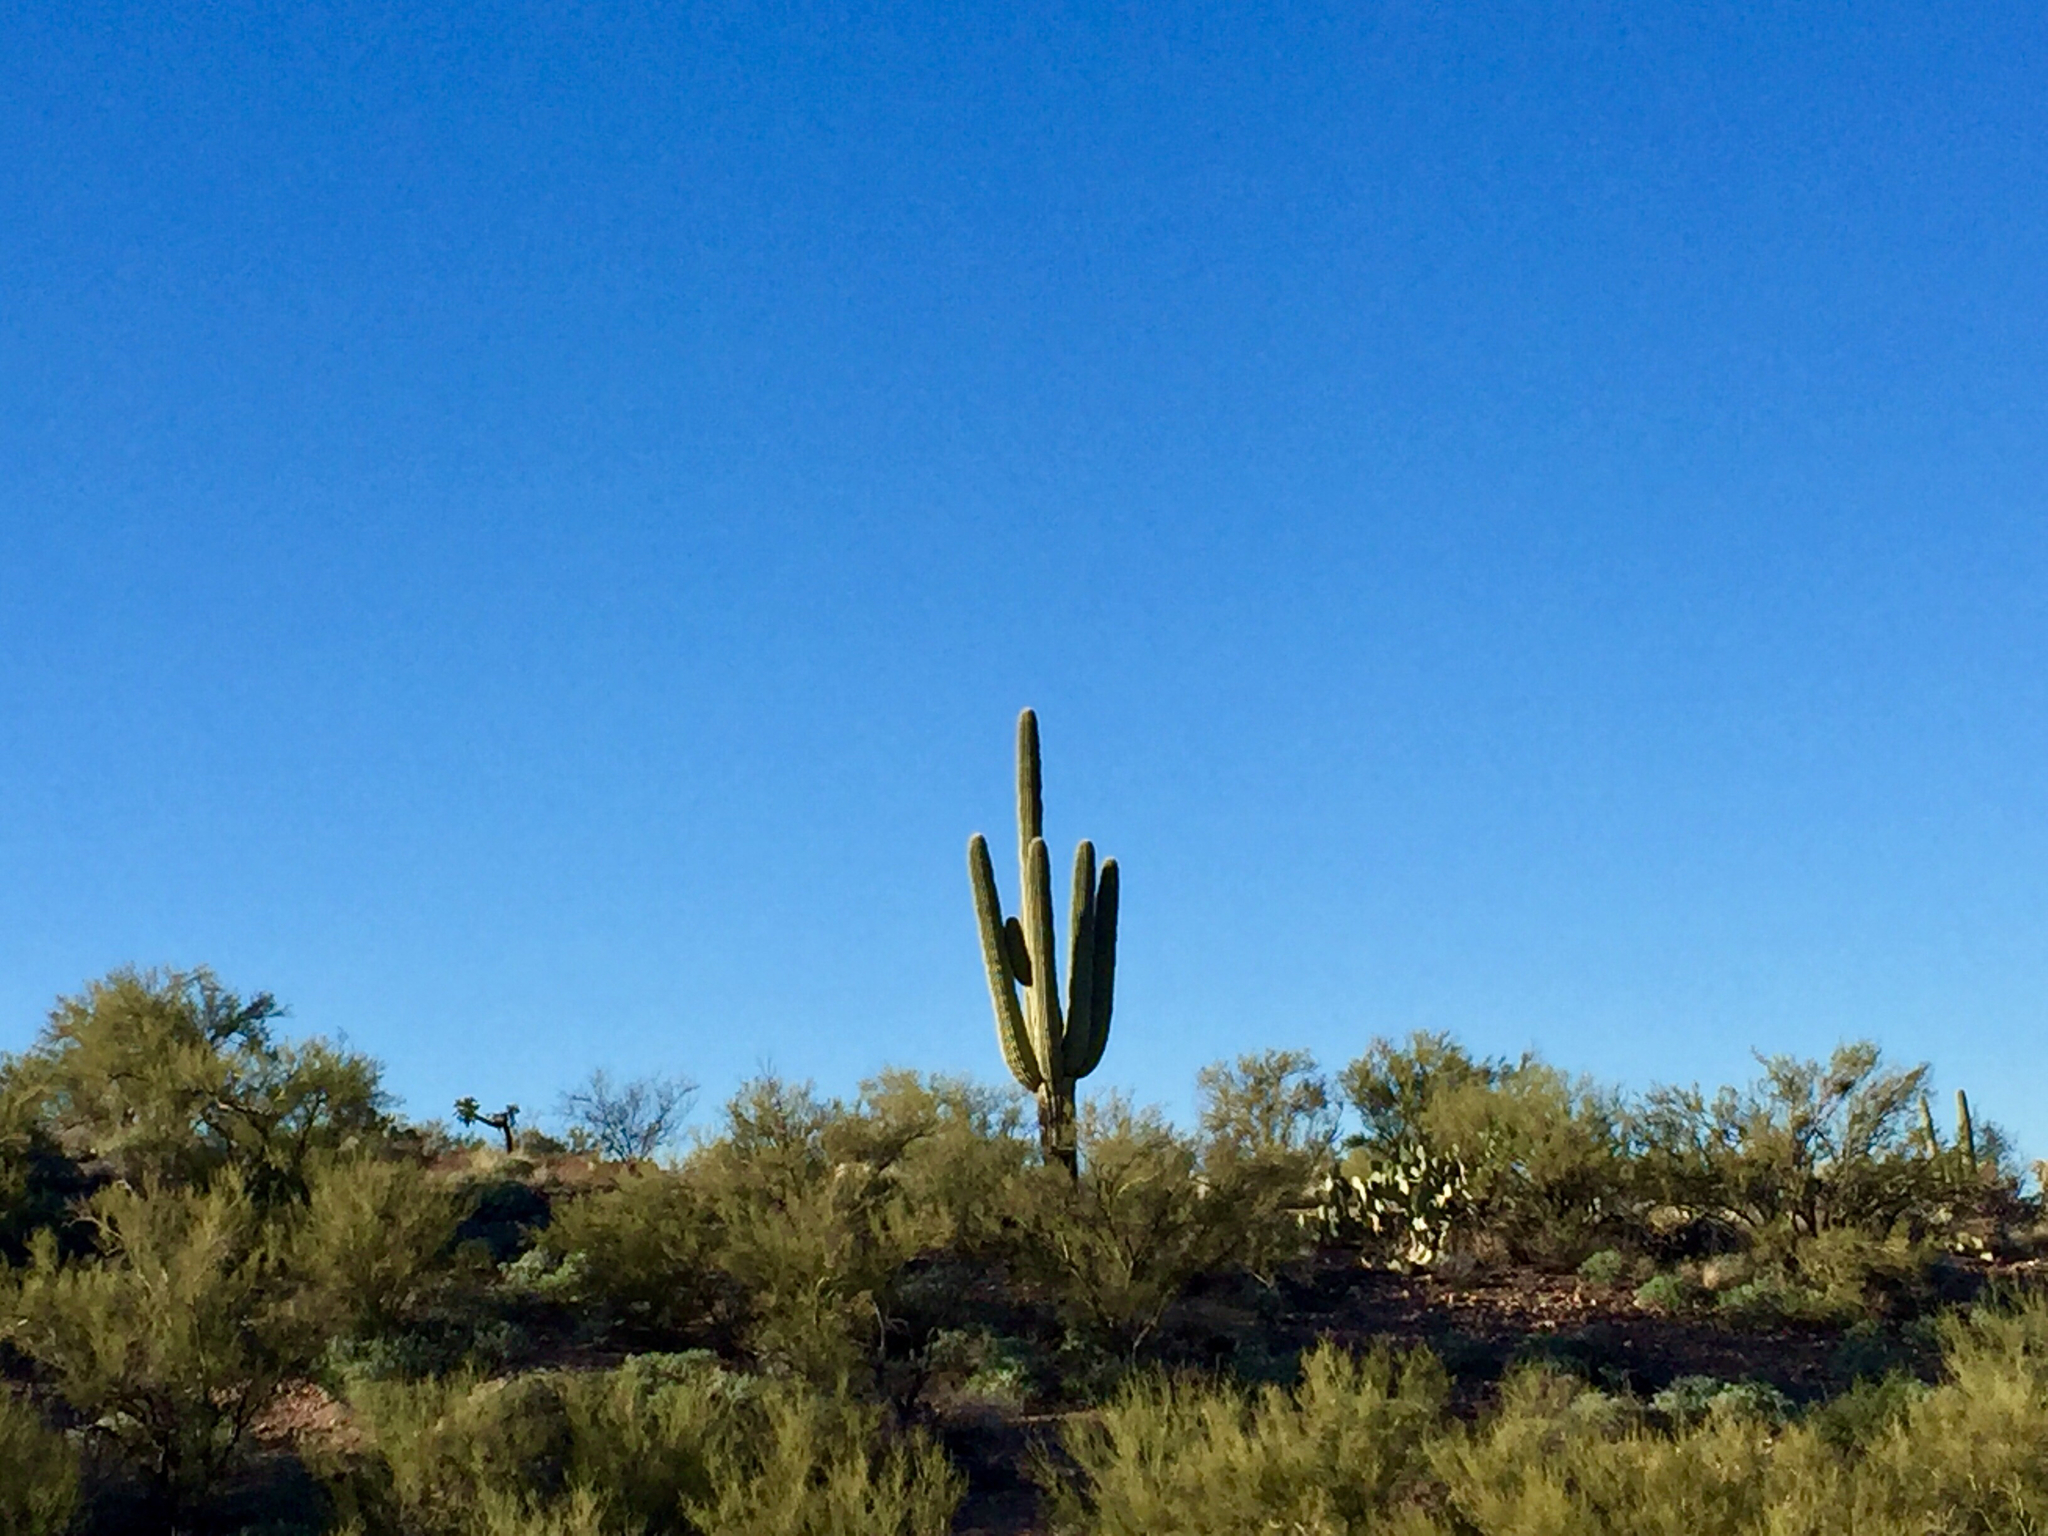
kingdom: Plantae
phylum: Tracheophyta
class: Magnoliopsida
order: Caryophyllales
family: Cactaceae
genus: Carnegiea
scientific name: Carnegiea gigantea
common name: Saguaro
